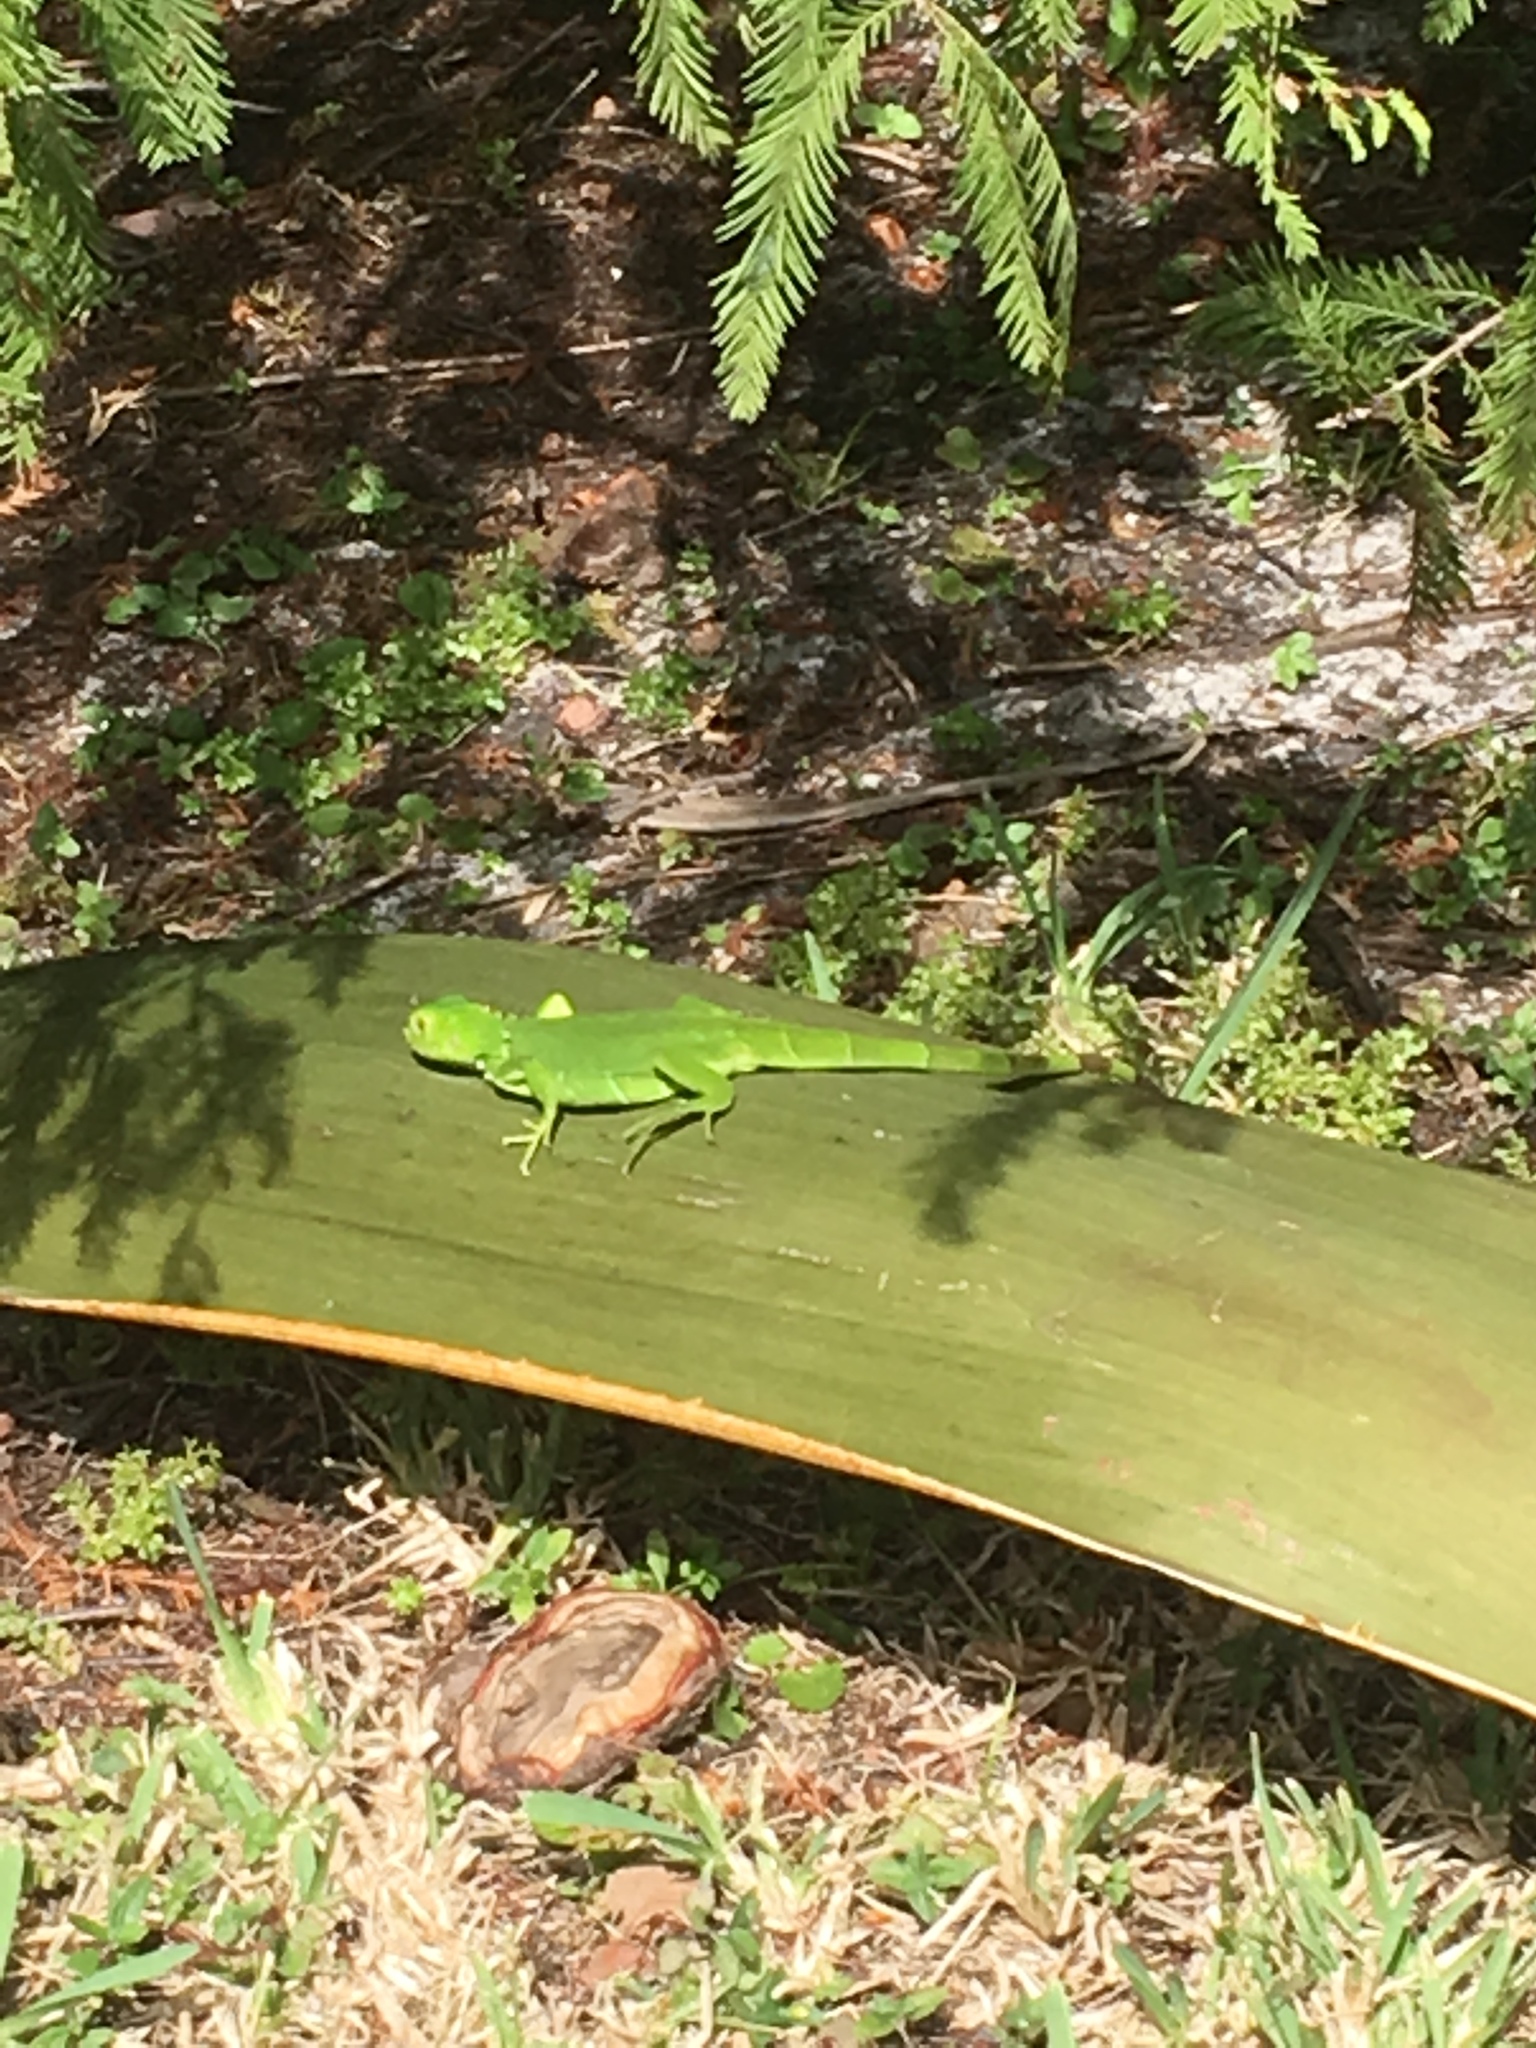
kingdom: Animalia
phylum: Chordata
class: Squamata
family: Iguanidae
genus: Iguana
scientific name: Iguana iguana
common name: Green iguana
